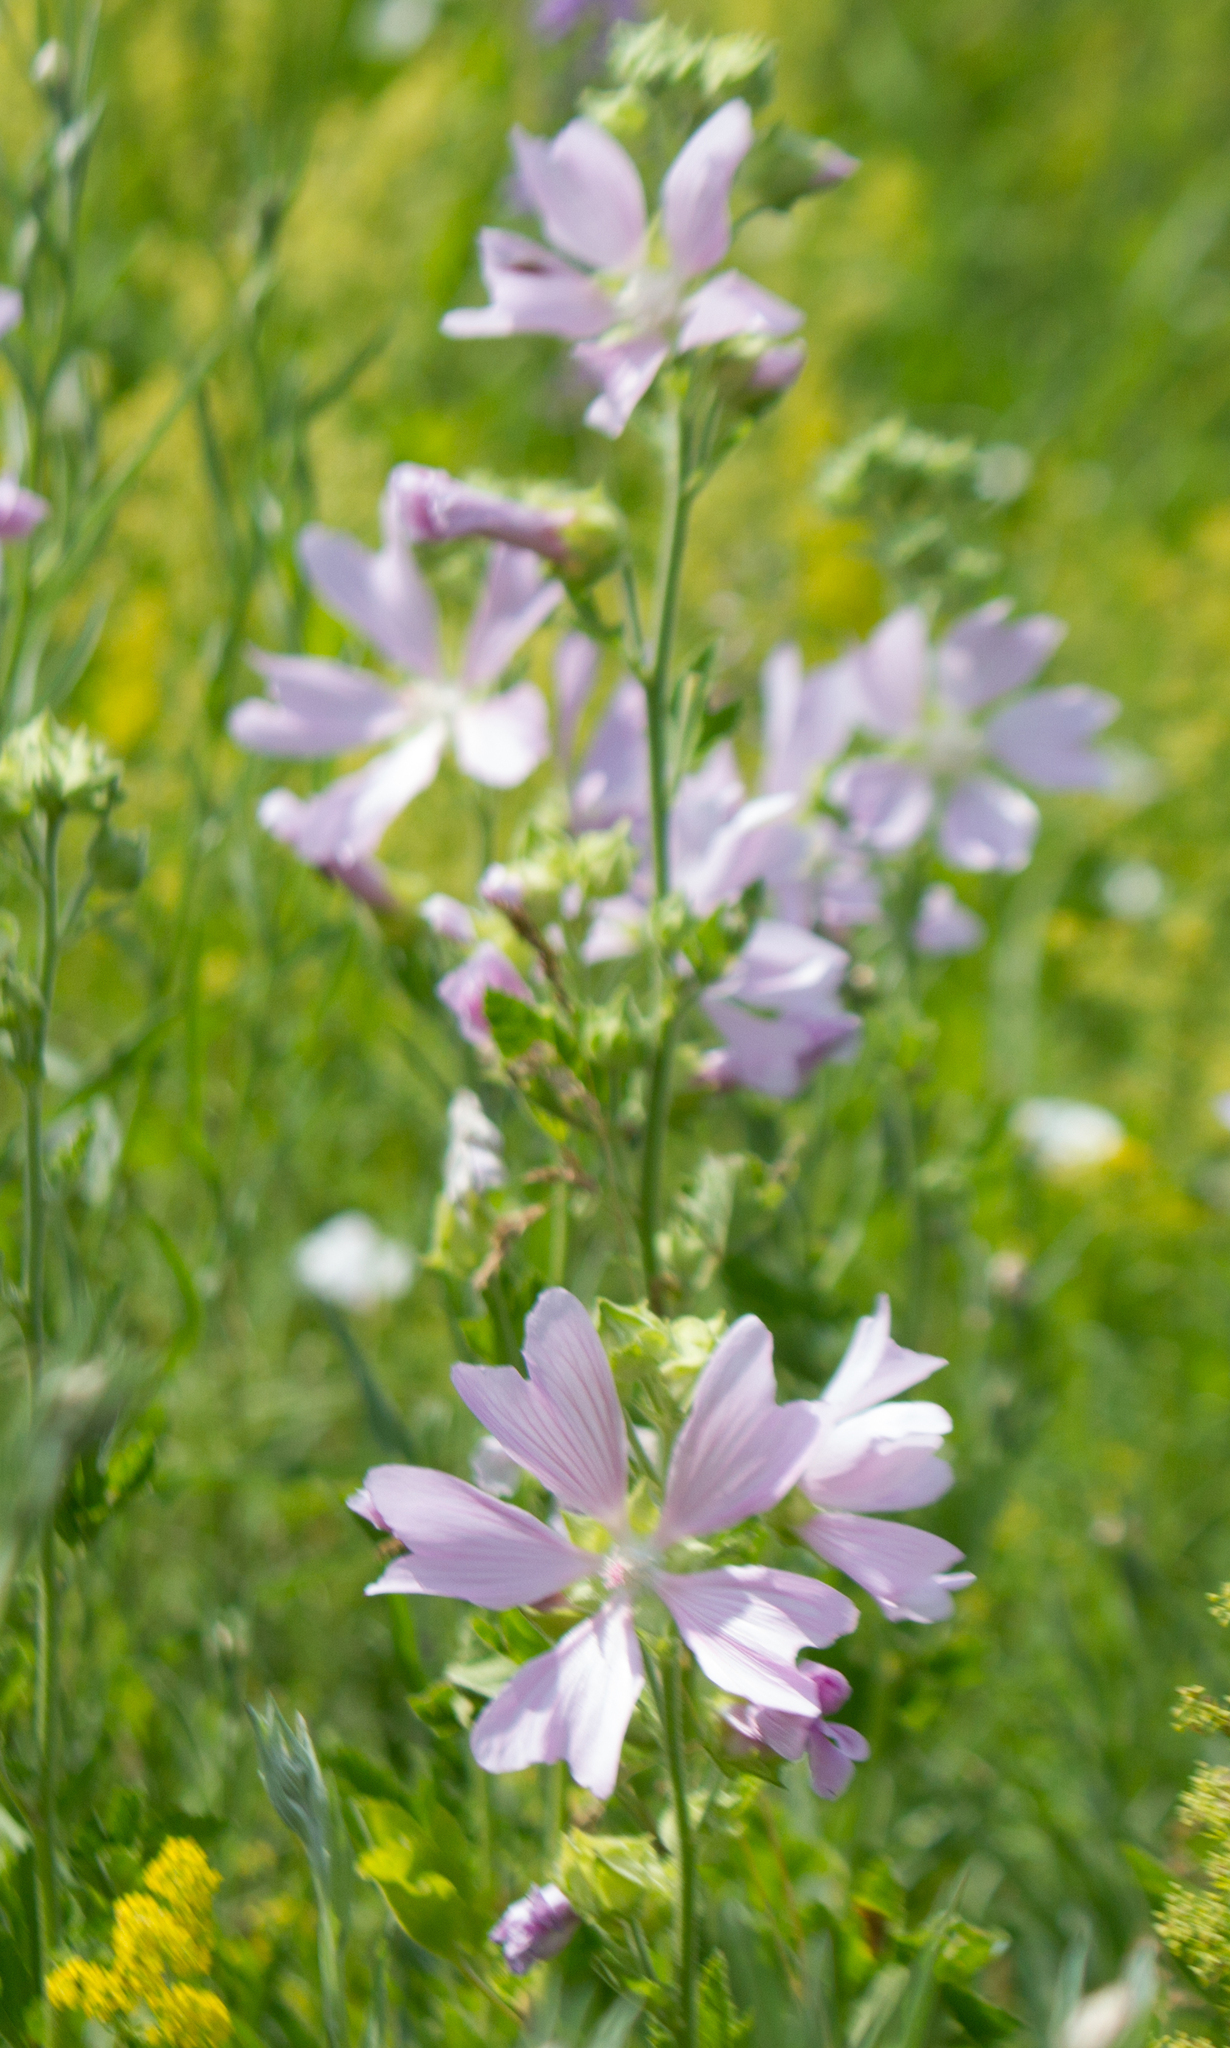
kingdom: Plantae
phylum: Tracheophyta
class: Magnoliopsida
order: Malvales
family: Malvaceae
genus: Malva
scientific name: Malva thuringiaca
